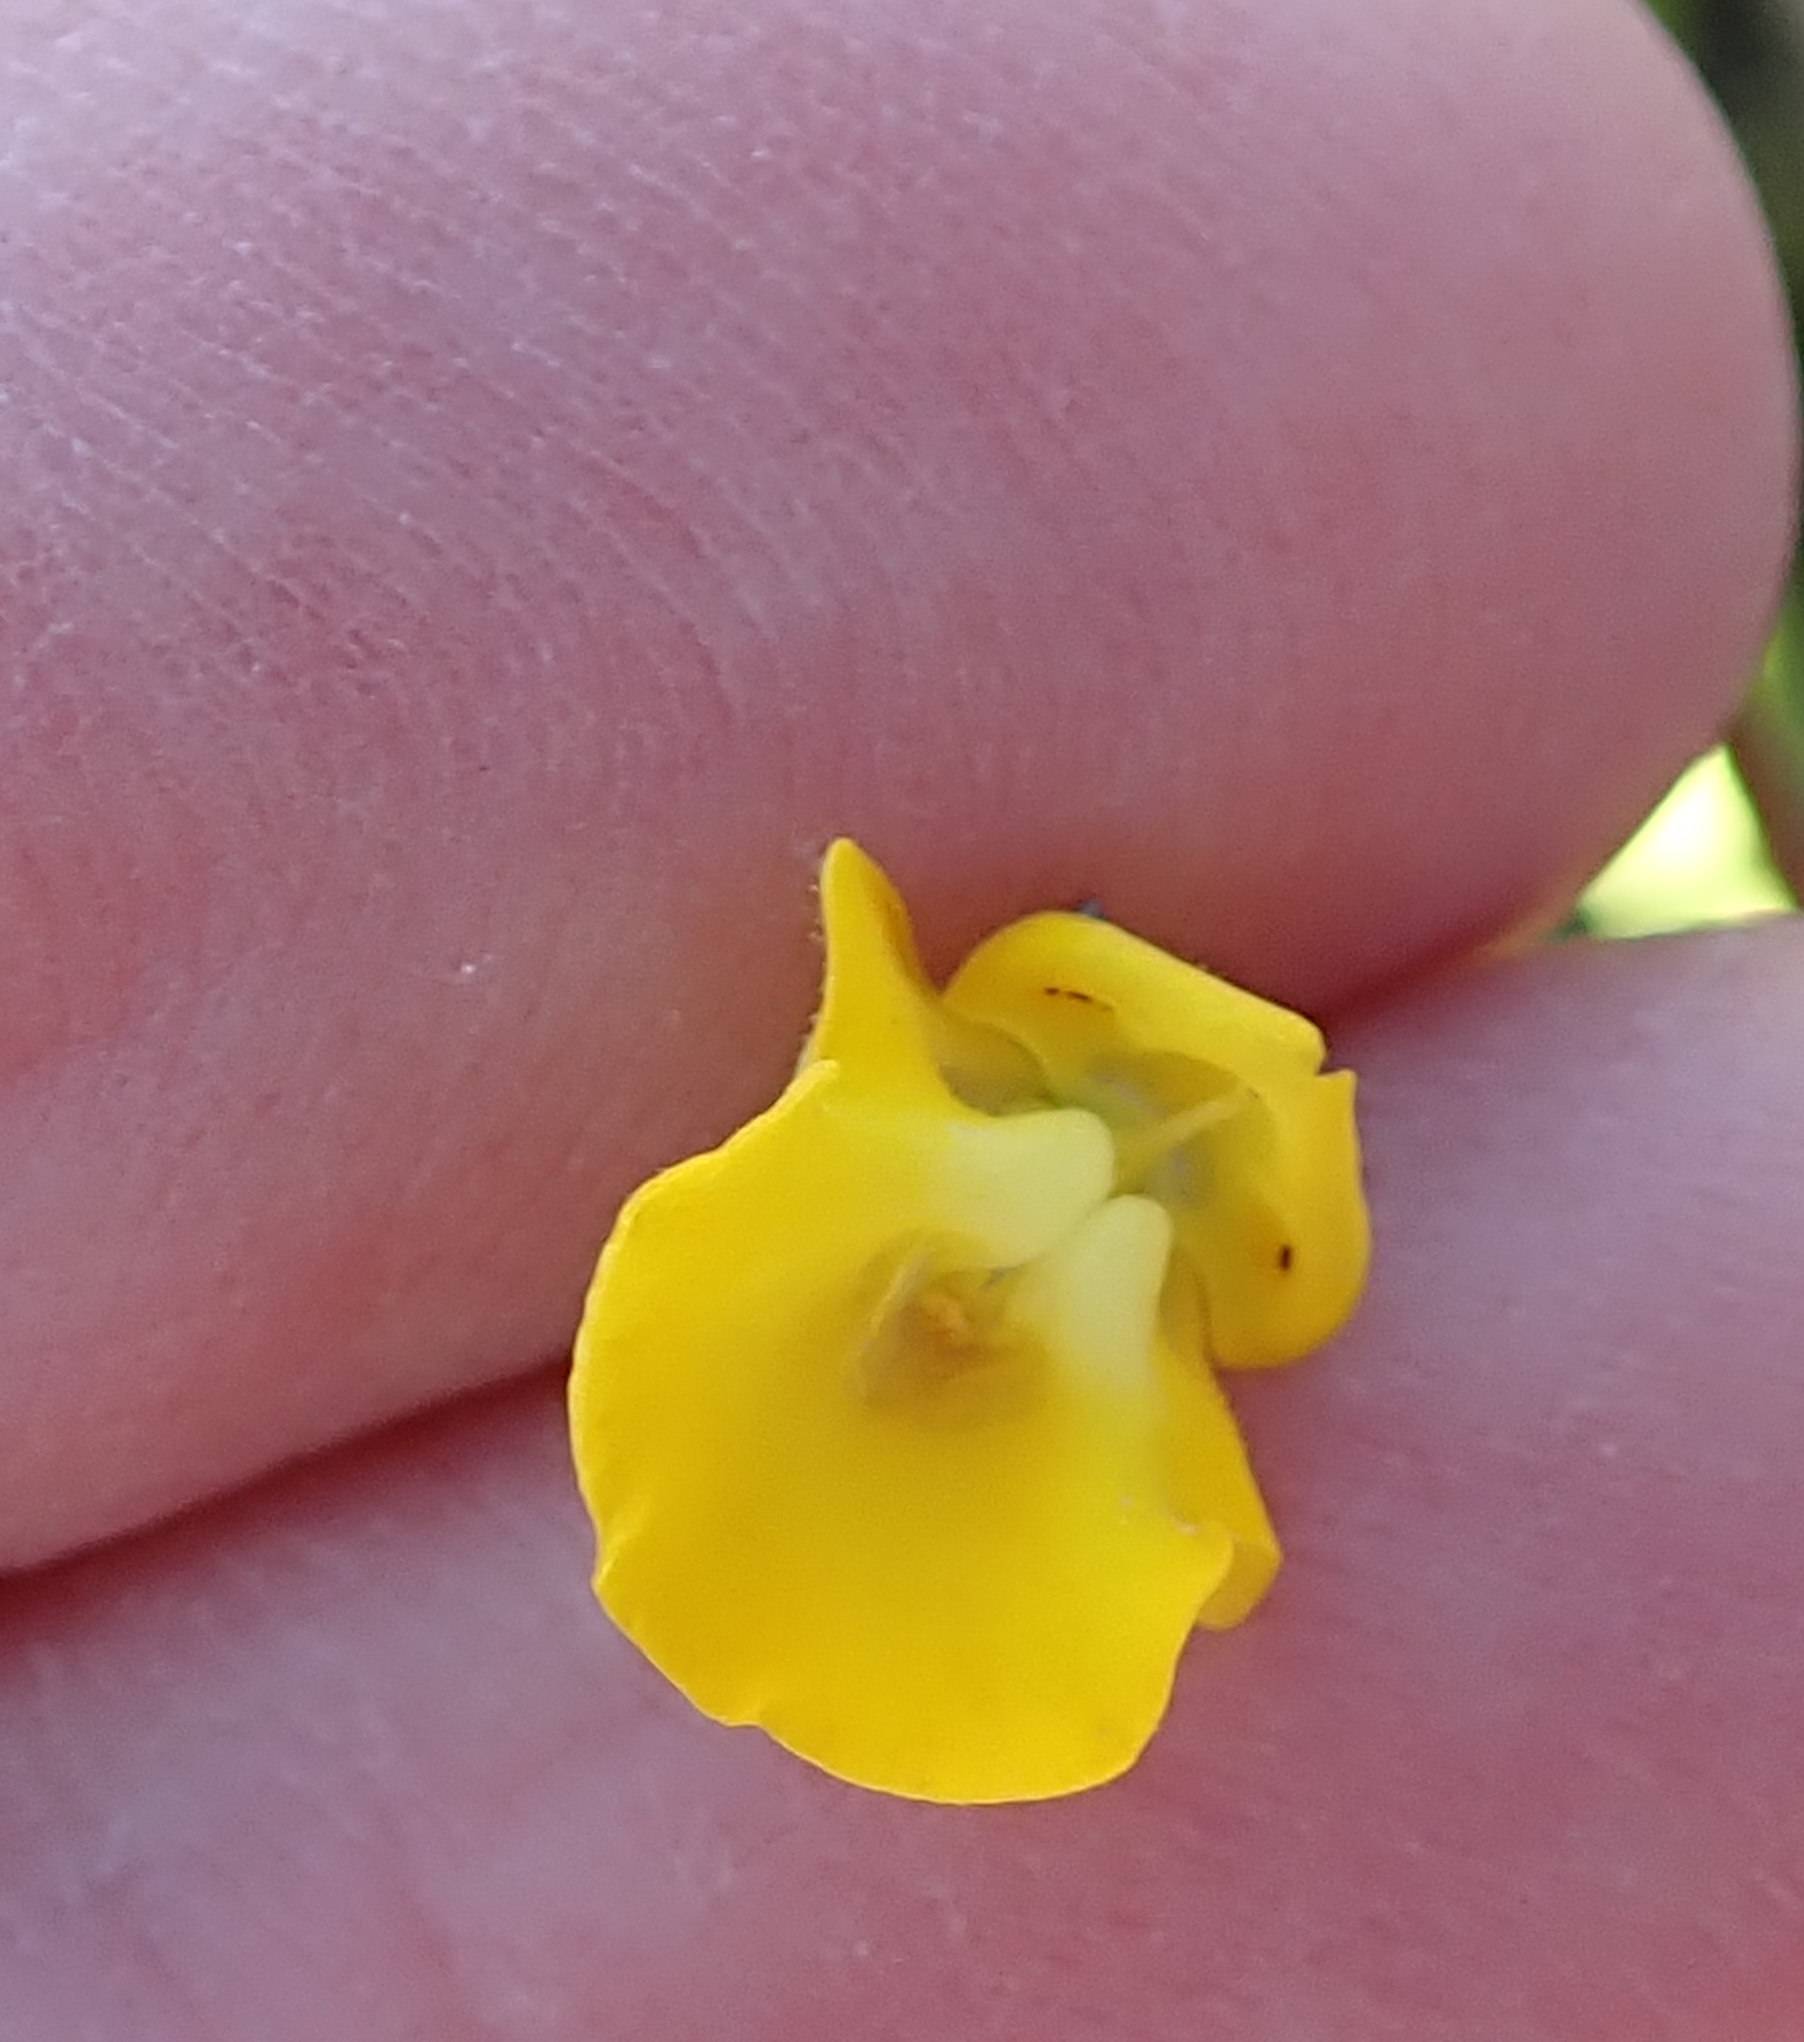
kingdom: Plantae
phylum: Tracheophyta
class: Magnoliopsida
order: Lamiales
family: Scrophulariaceae
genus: Hemimeris
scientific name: Hemimeris racemosa
